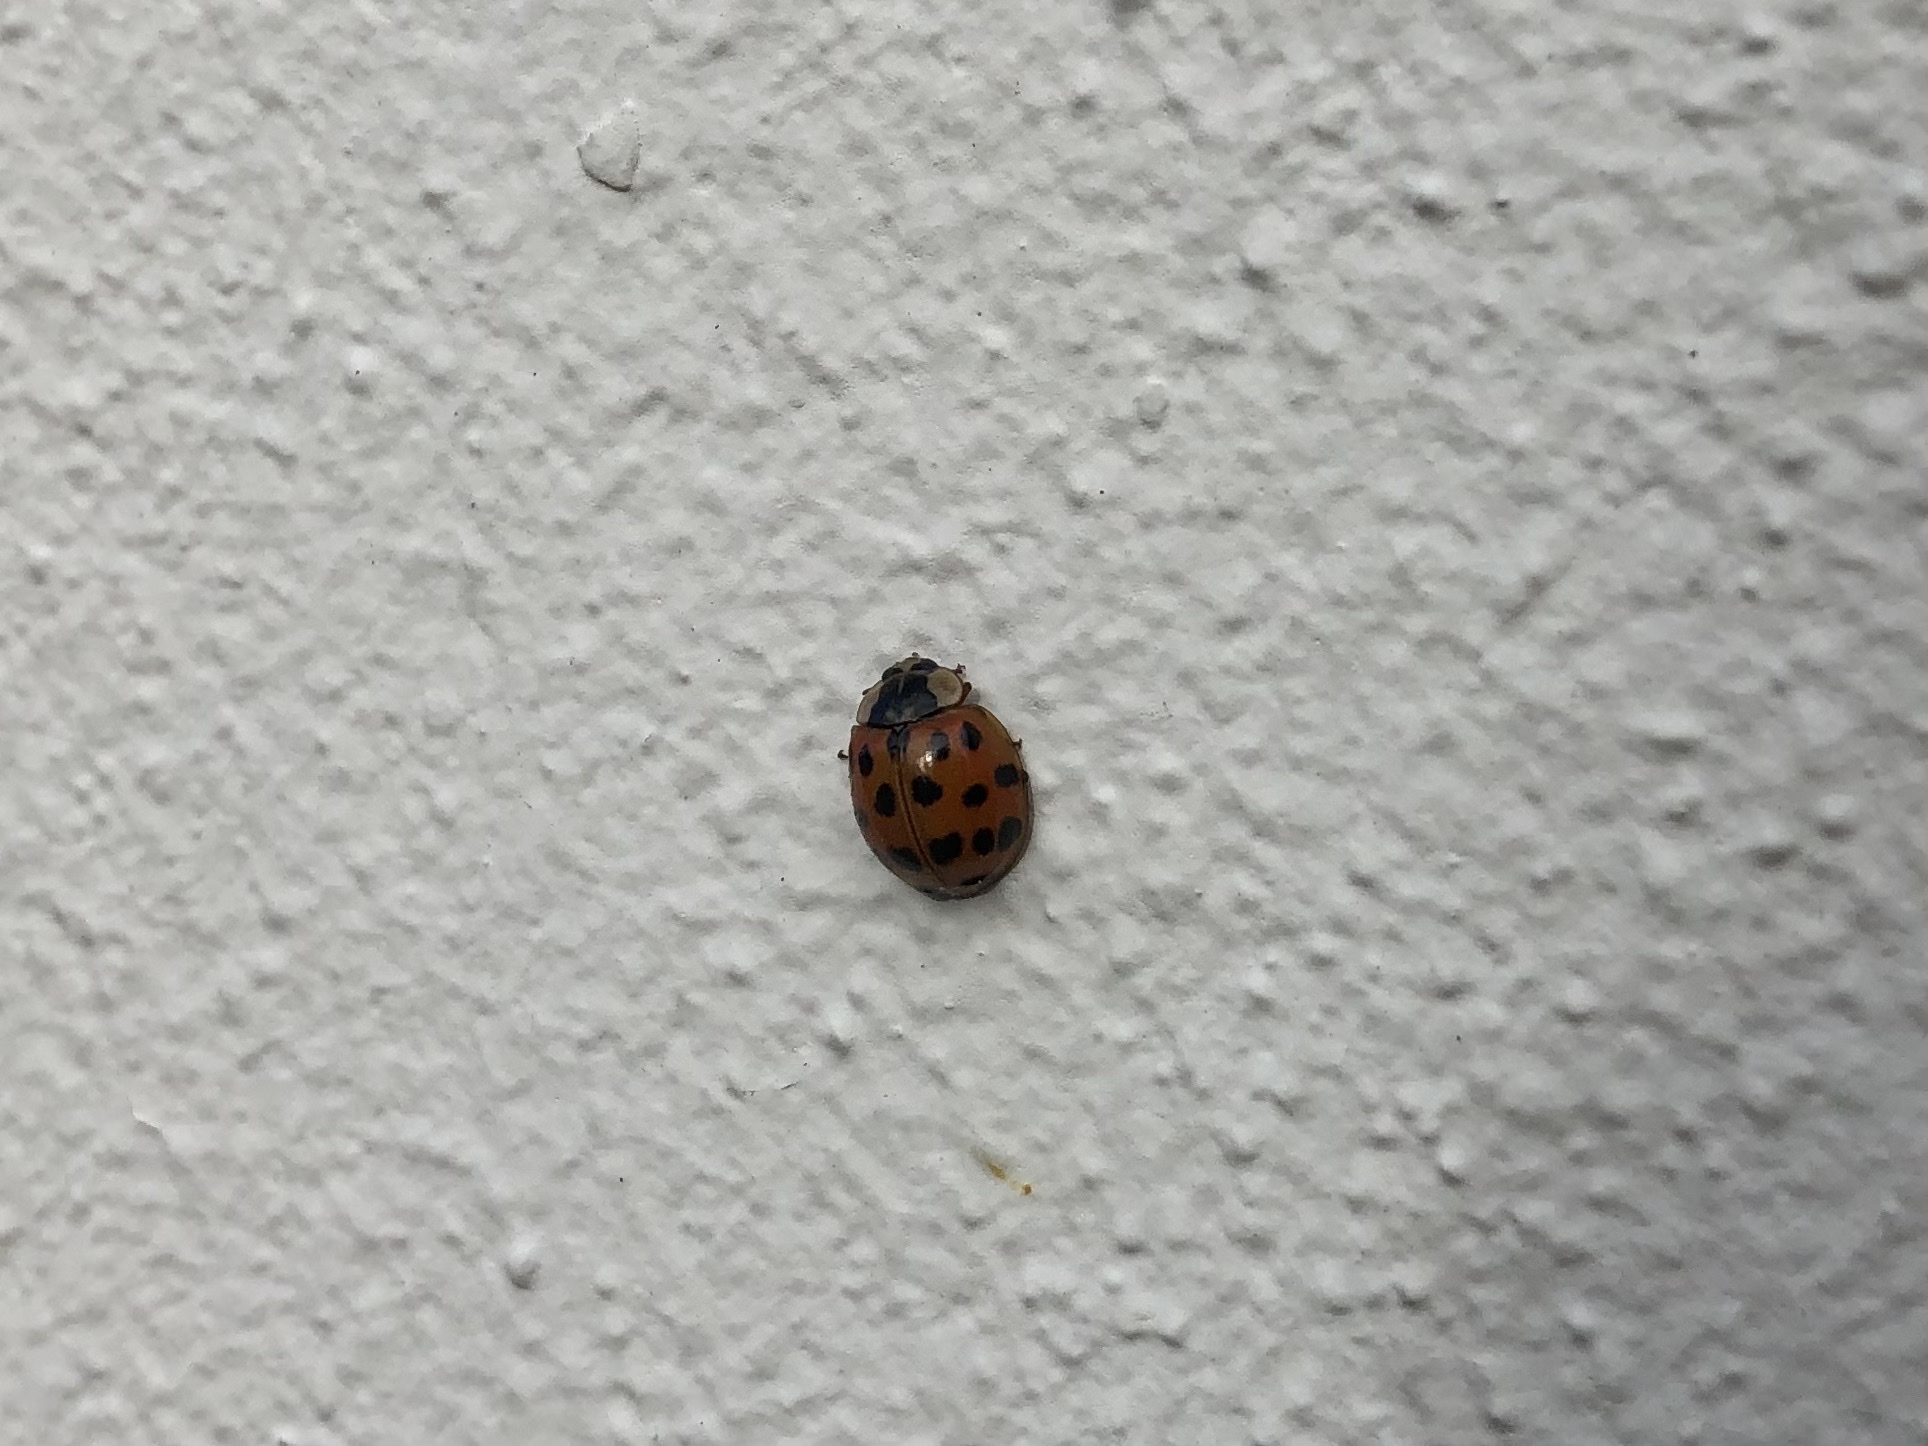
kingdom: Animalia
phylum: Arthropoda
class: Insecta
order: Coleoptera
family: Coccinellidae
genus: Harmonia
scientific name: Harmonia axyridis
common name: Harlequin ladybird
